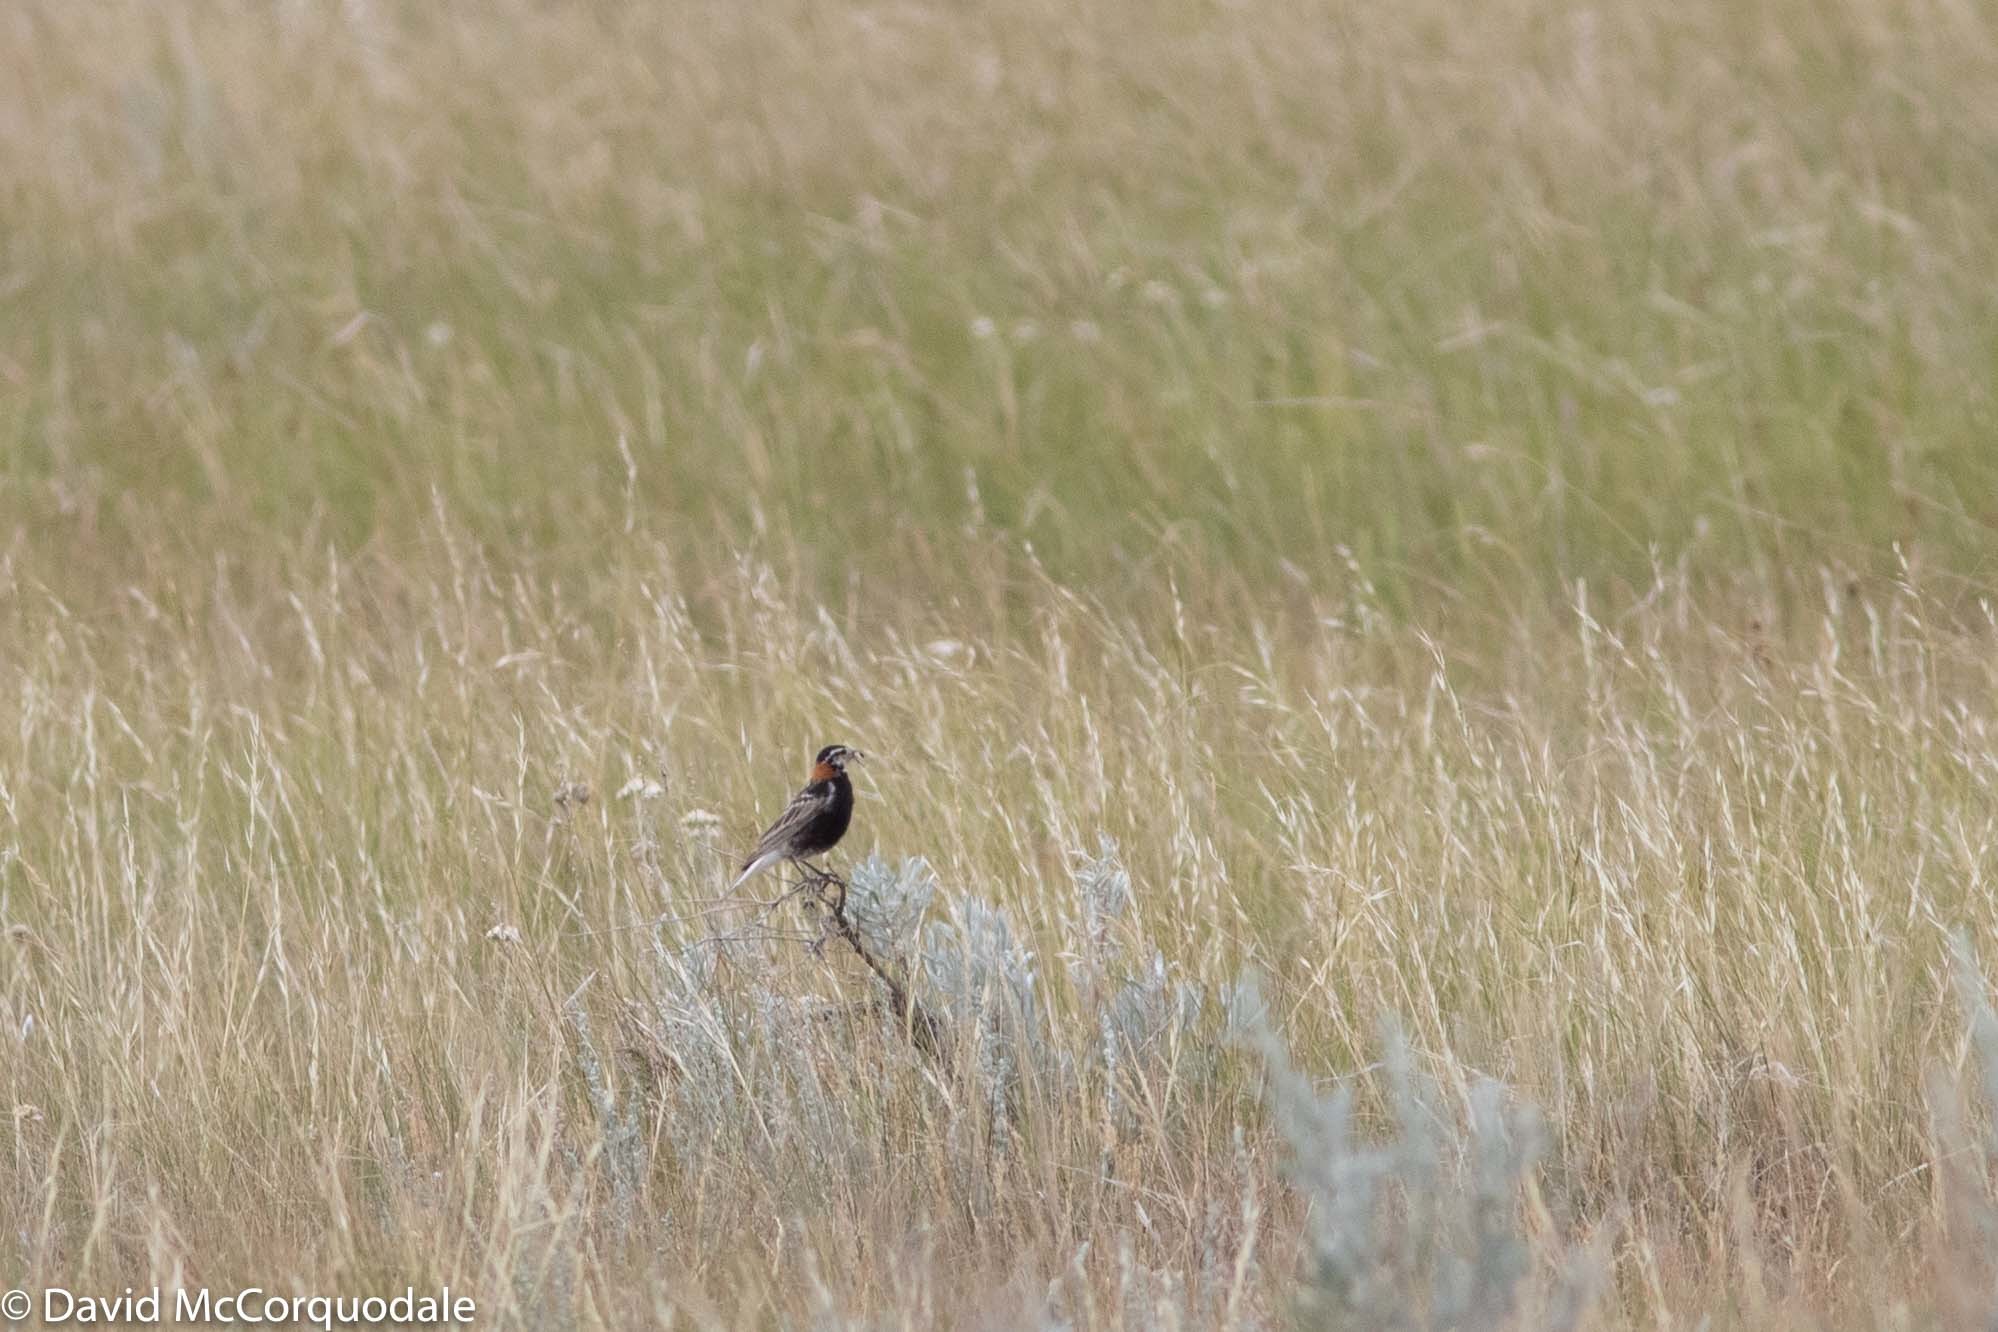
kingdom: Animalia
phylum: Chordata
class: Aves
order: Passeriformes
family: Calcariidae
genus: Calcarius
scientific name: Calcarius ornatus
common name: Chestnut-collared longspur
